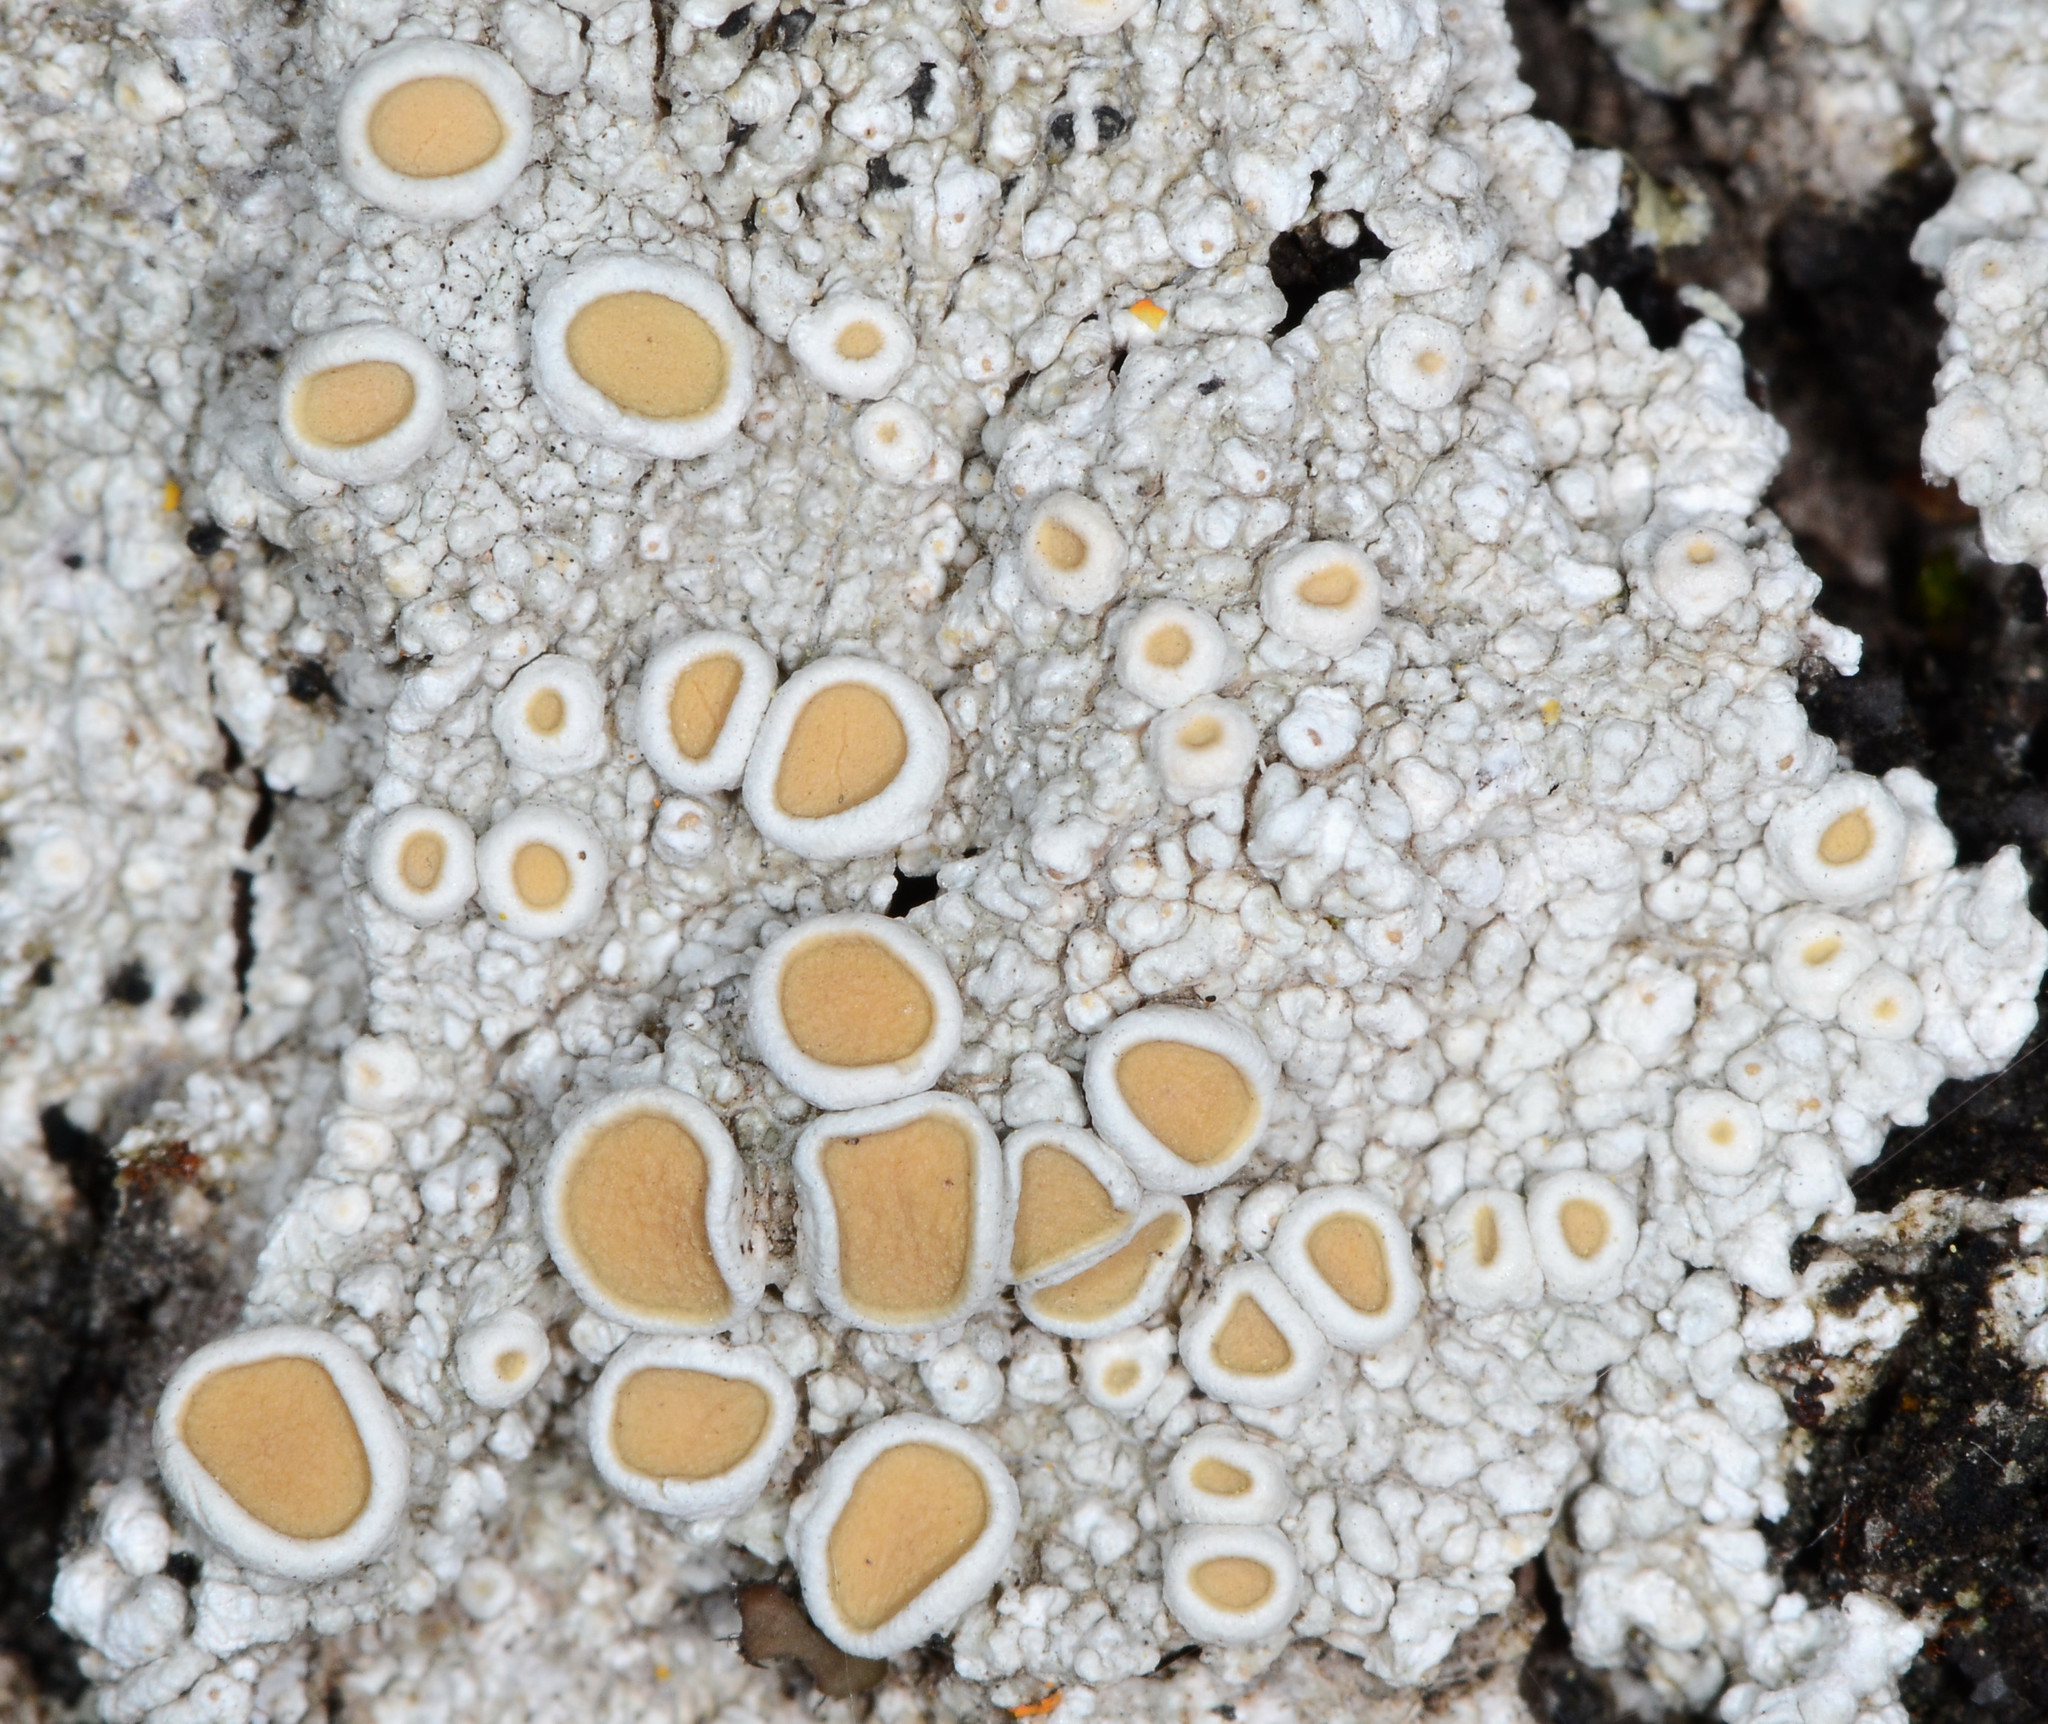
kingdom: Fungi
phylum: Ascomycota
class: Lecanoromycetes
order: Pertusariales
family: Ochrolechiaceae
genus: Ochrolechia
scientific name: Ochrolechia subpallescens
